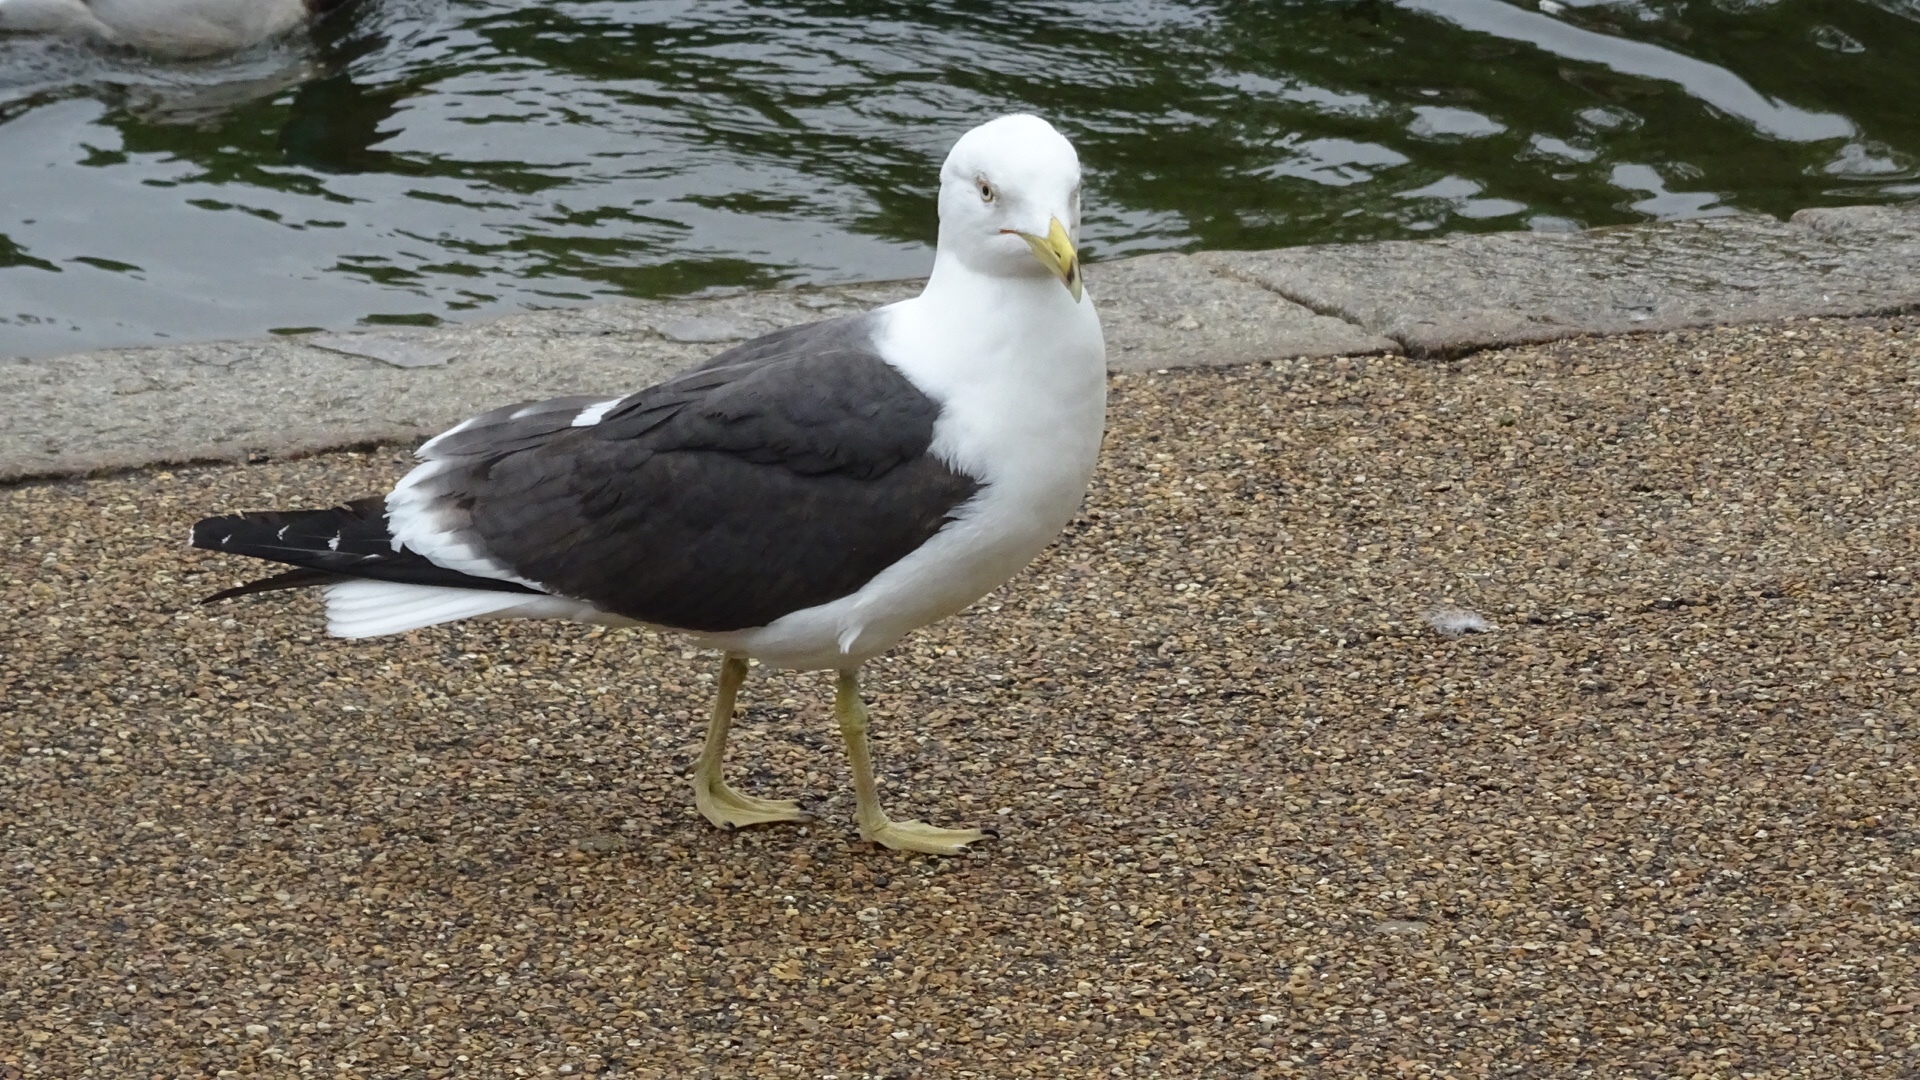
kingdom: Animalia
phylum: Chordata
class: Aves
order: Charadriiformes
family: Laridae
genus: Larus
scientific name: Larus fuscus
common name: Lesser black-backed gull
